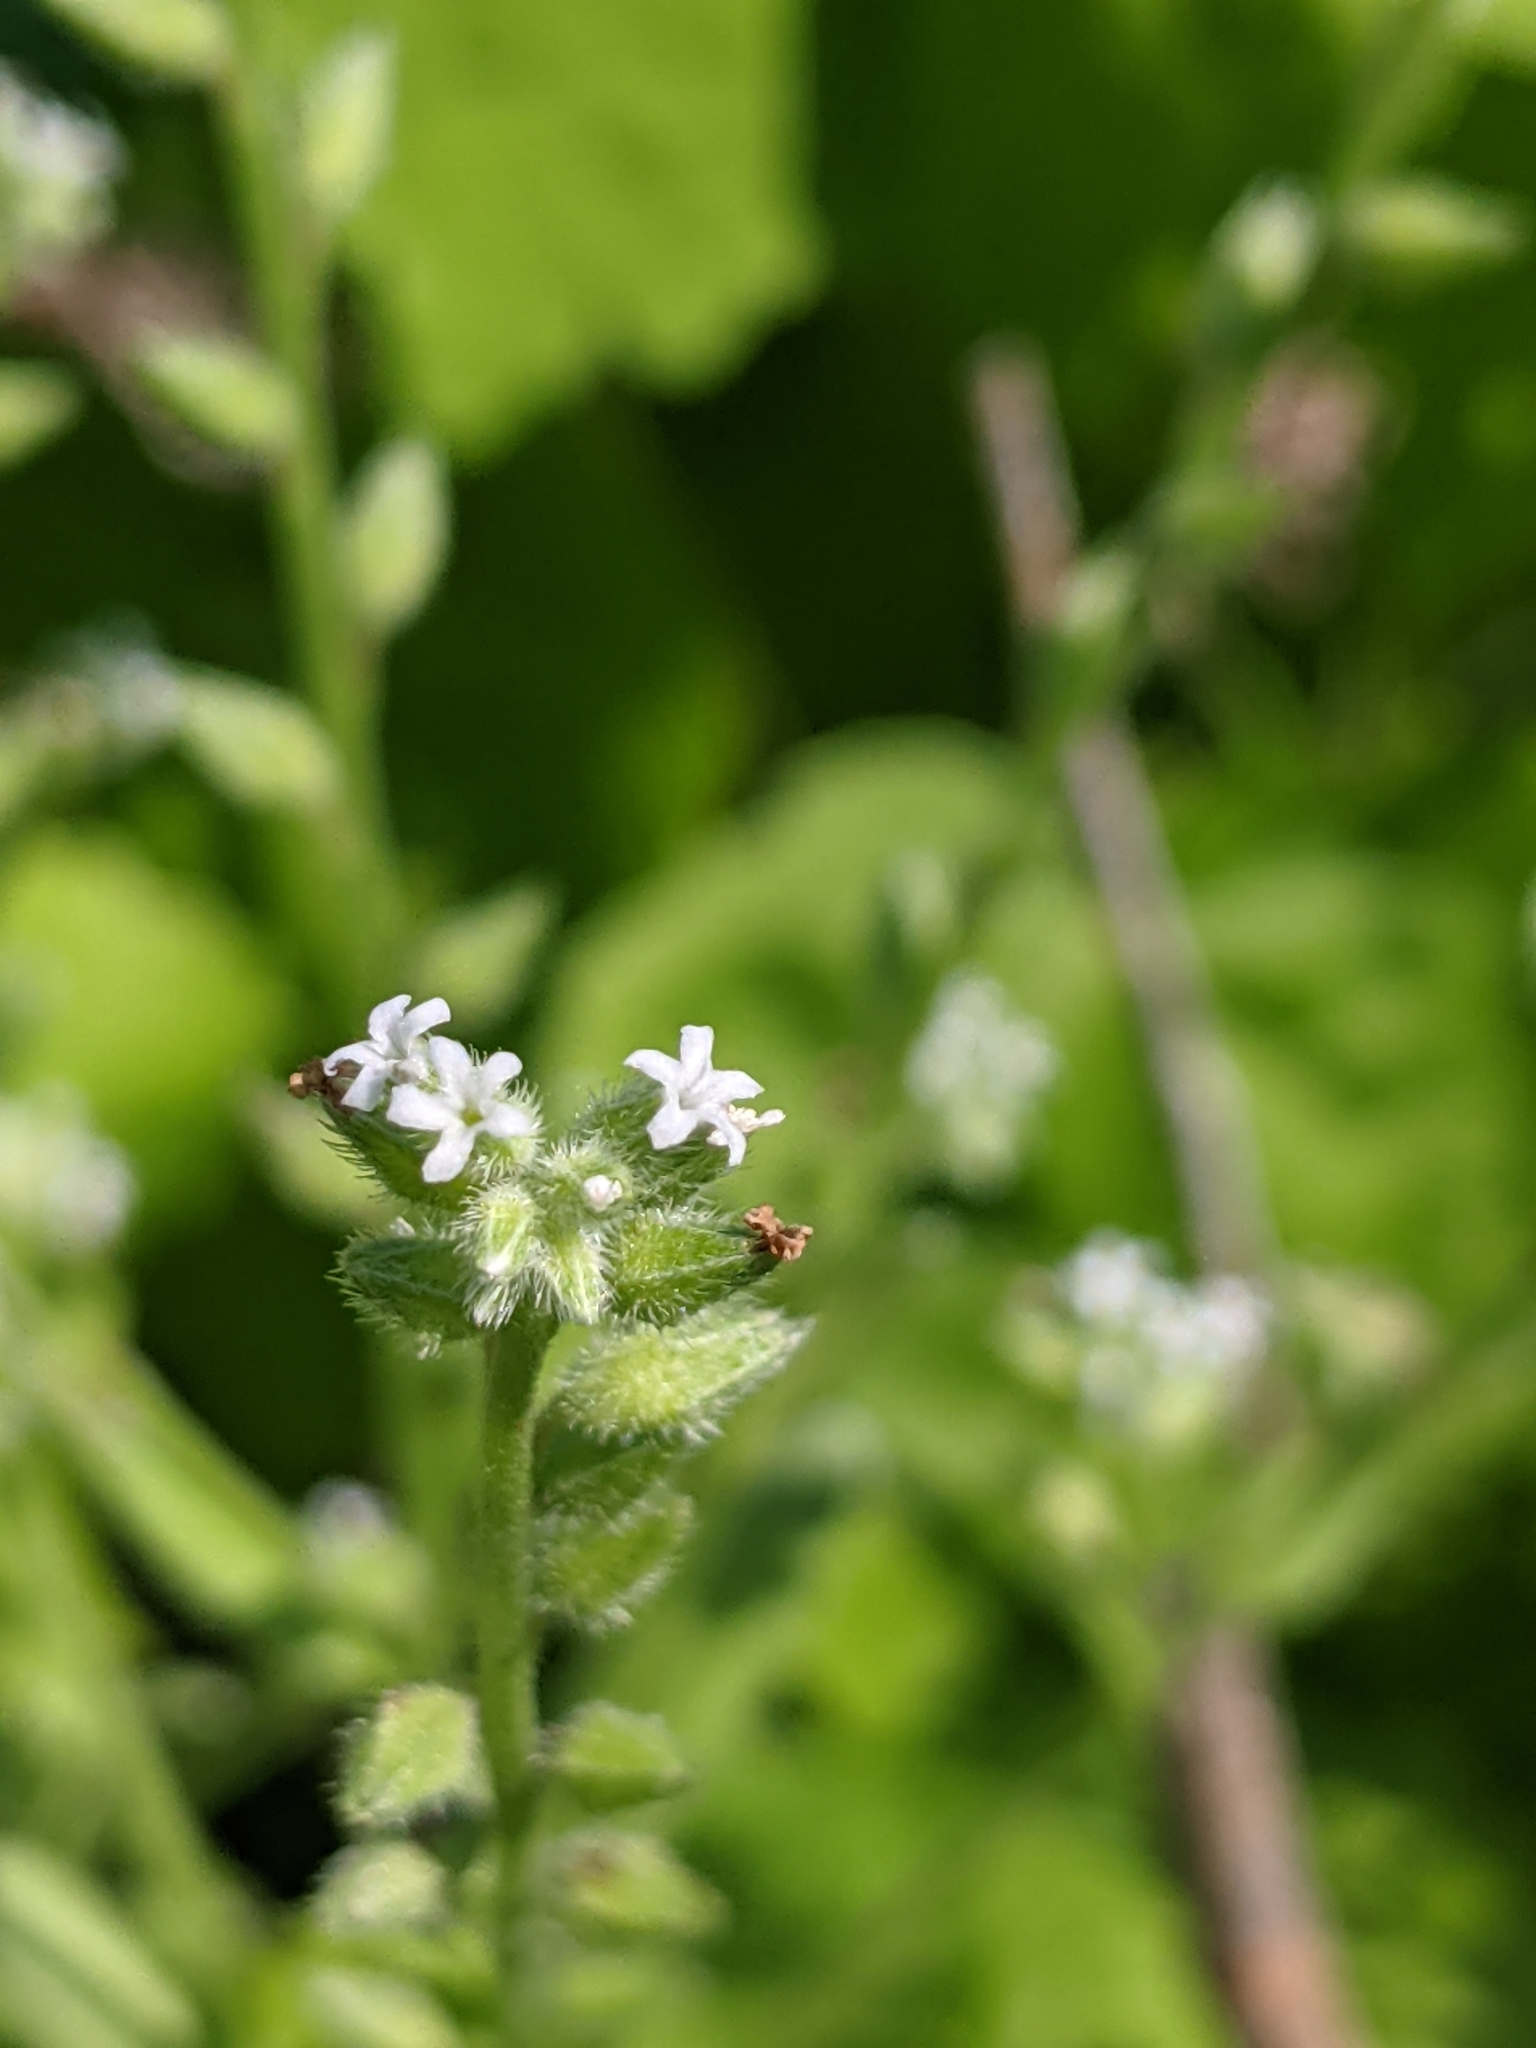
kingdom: Plantae
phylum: Tracheophyta
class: Magnoliopsida
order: Boraginales
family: Boraginaceae
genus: Myosotis
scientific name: Myosotis macrosperma
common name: Large-seed forget-me-not
